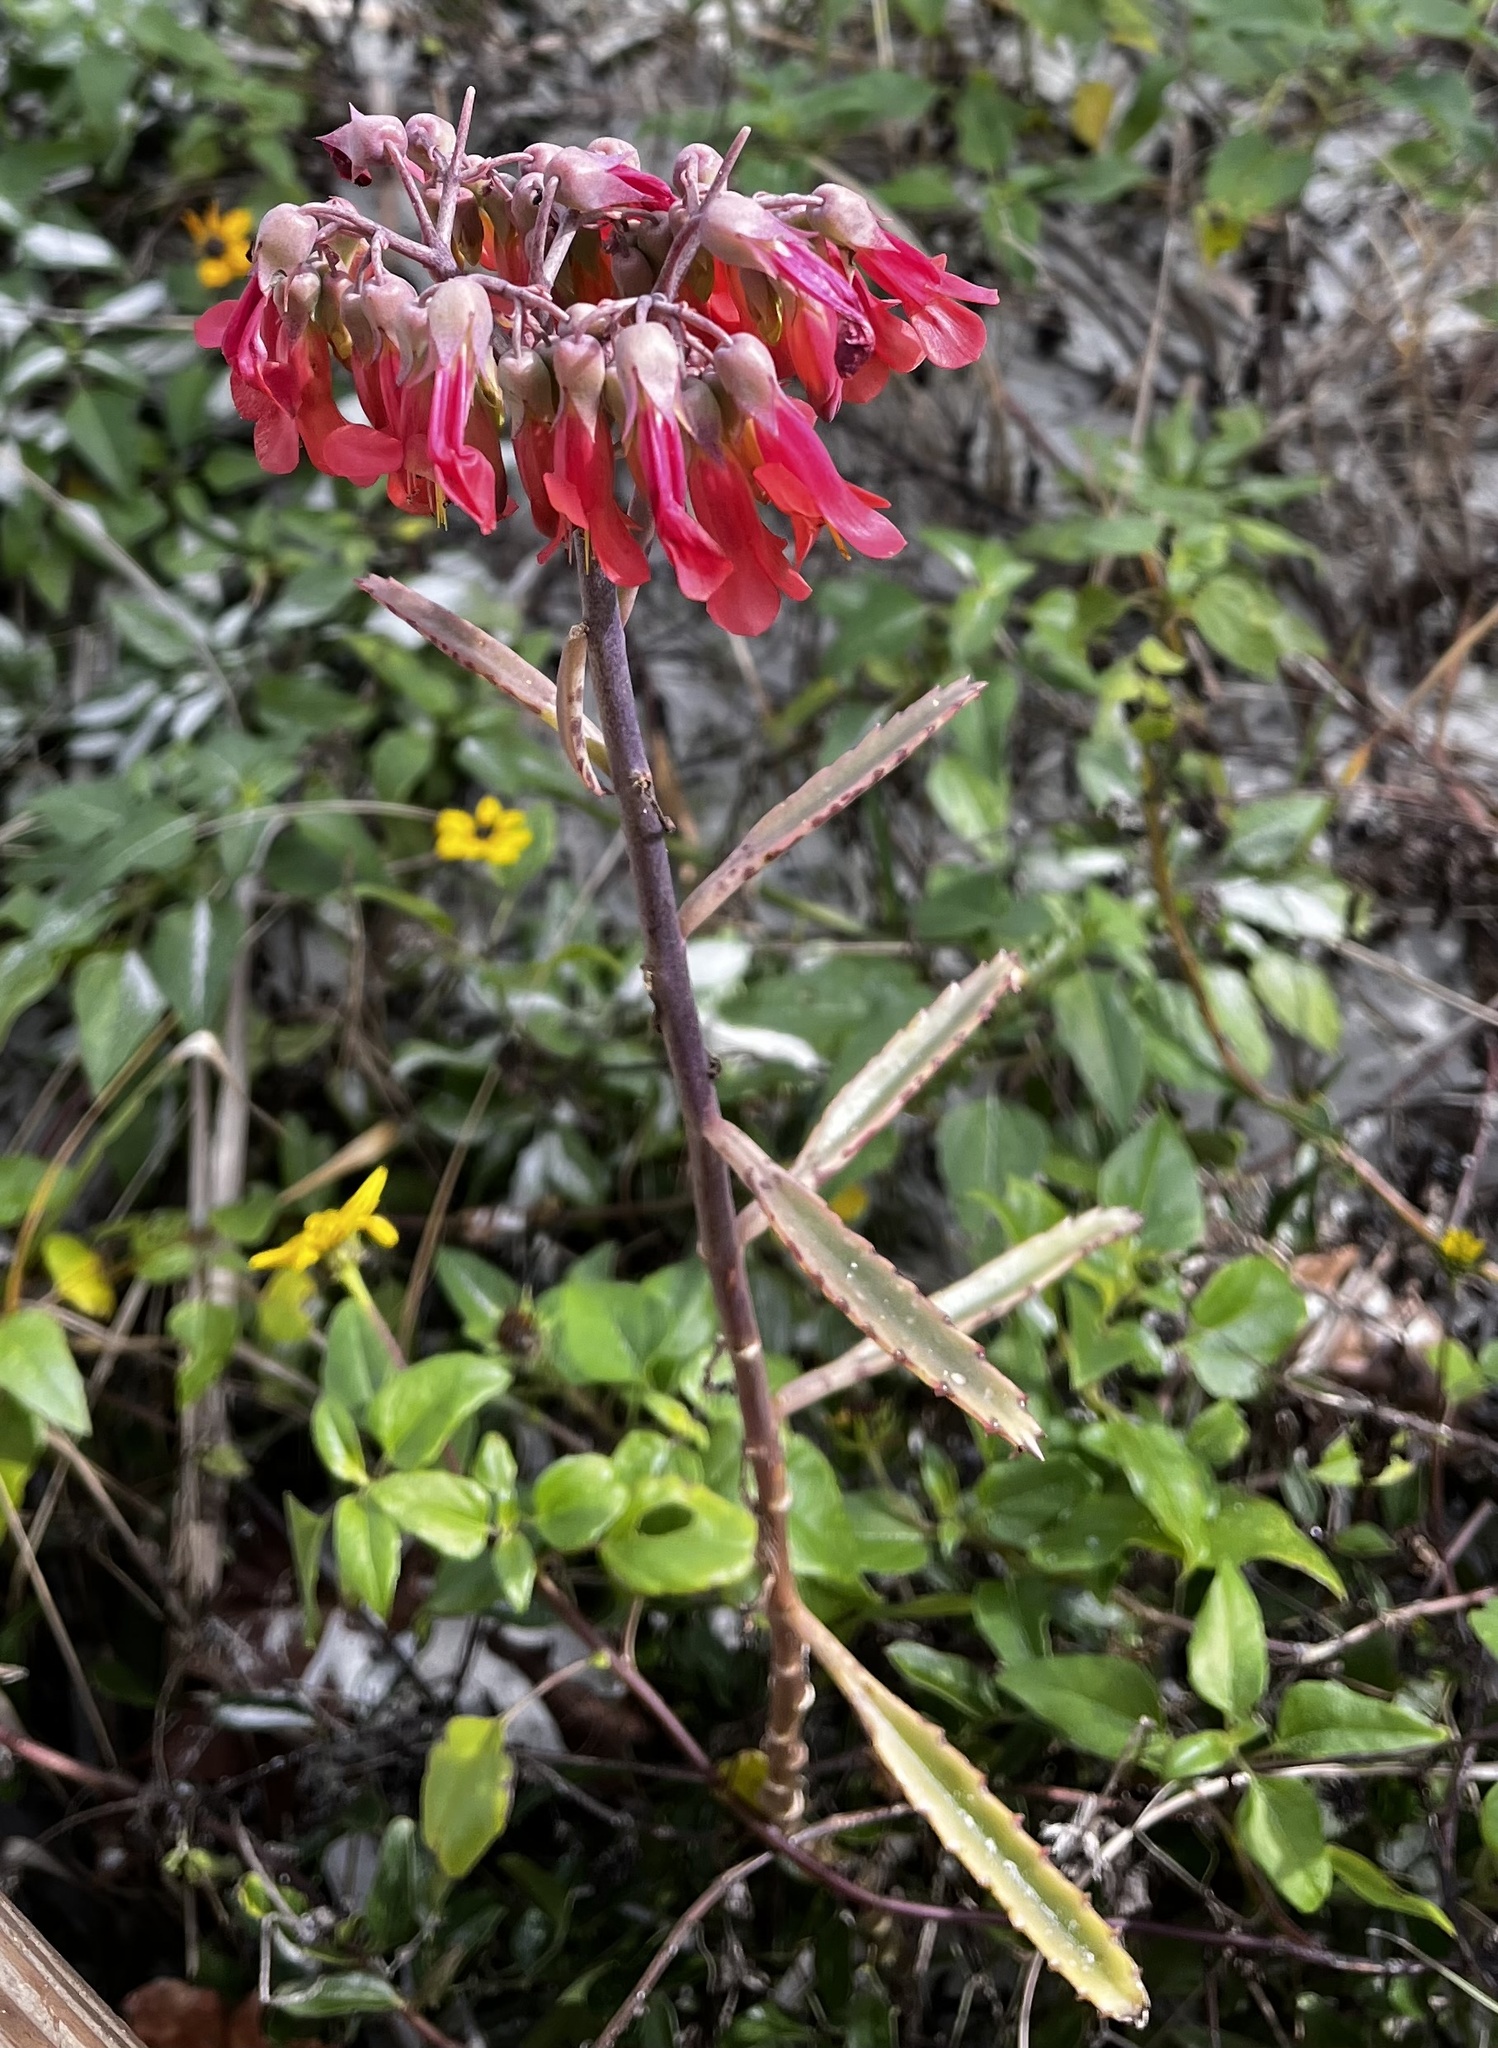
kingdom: Plantae
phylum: Tracheophyta
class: Magnoliopsida
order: Saxifragales
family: Crassulaceae
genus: Kalanchoe
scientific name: Kalanchoe houghtonii
